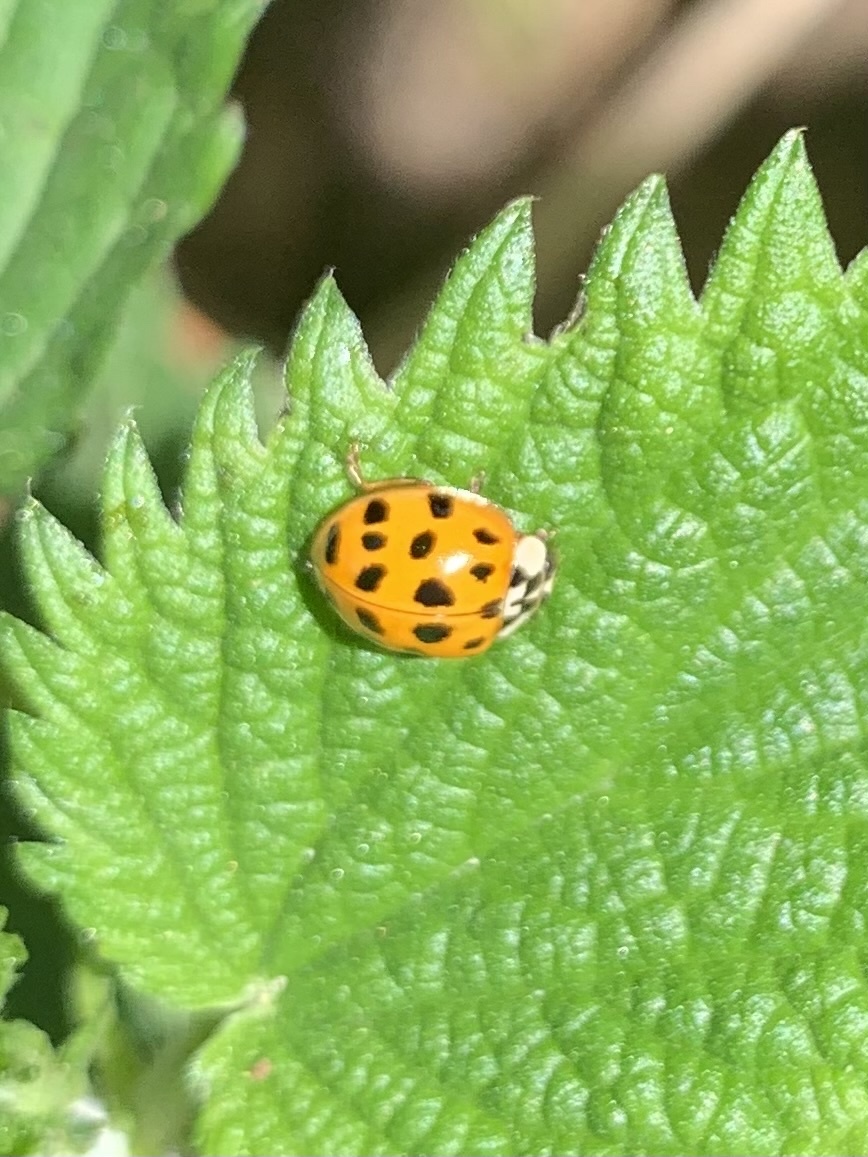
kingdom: Animalia
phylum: Arthropoda
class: Insecta
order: Coleoptera
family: Coccinellidae
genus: Harmonia
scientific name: Harmonia axyridis
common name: Harlequin ladybird
